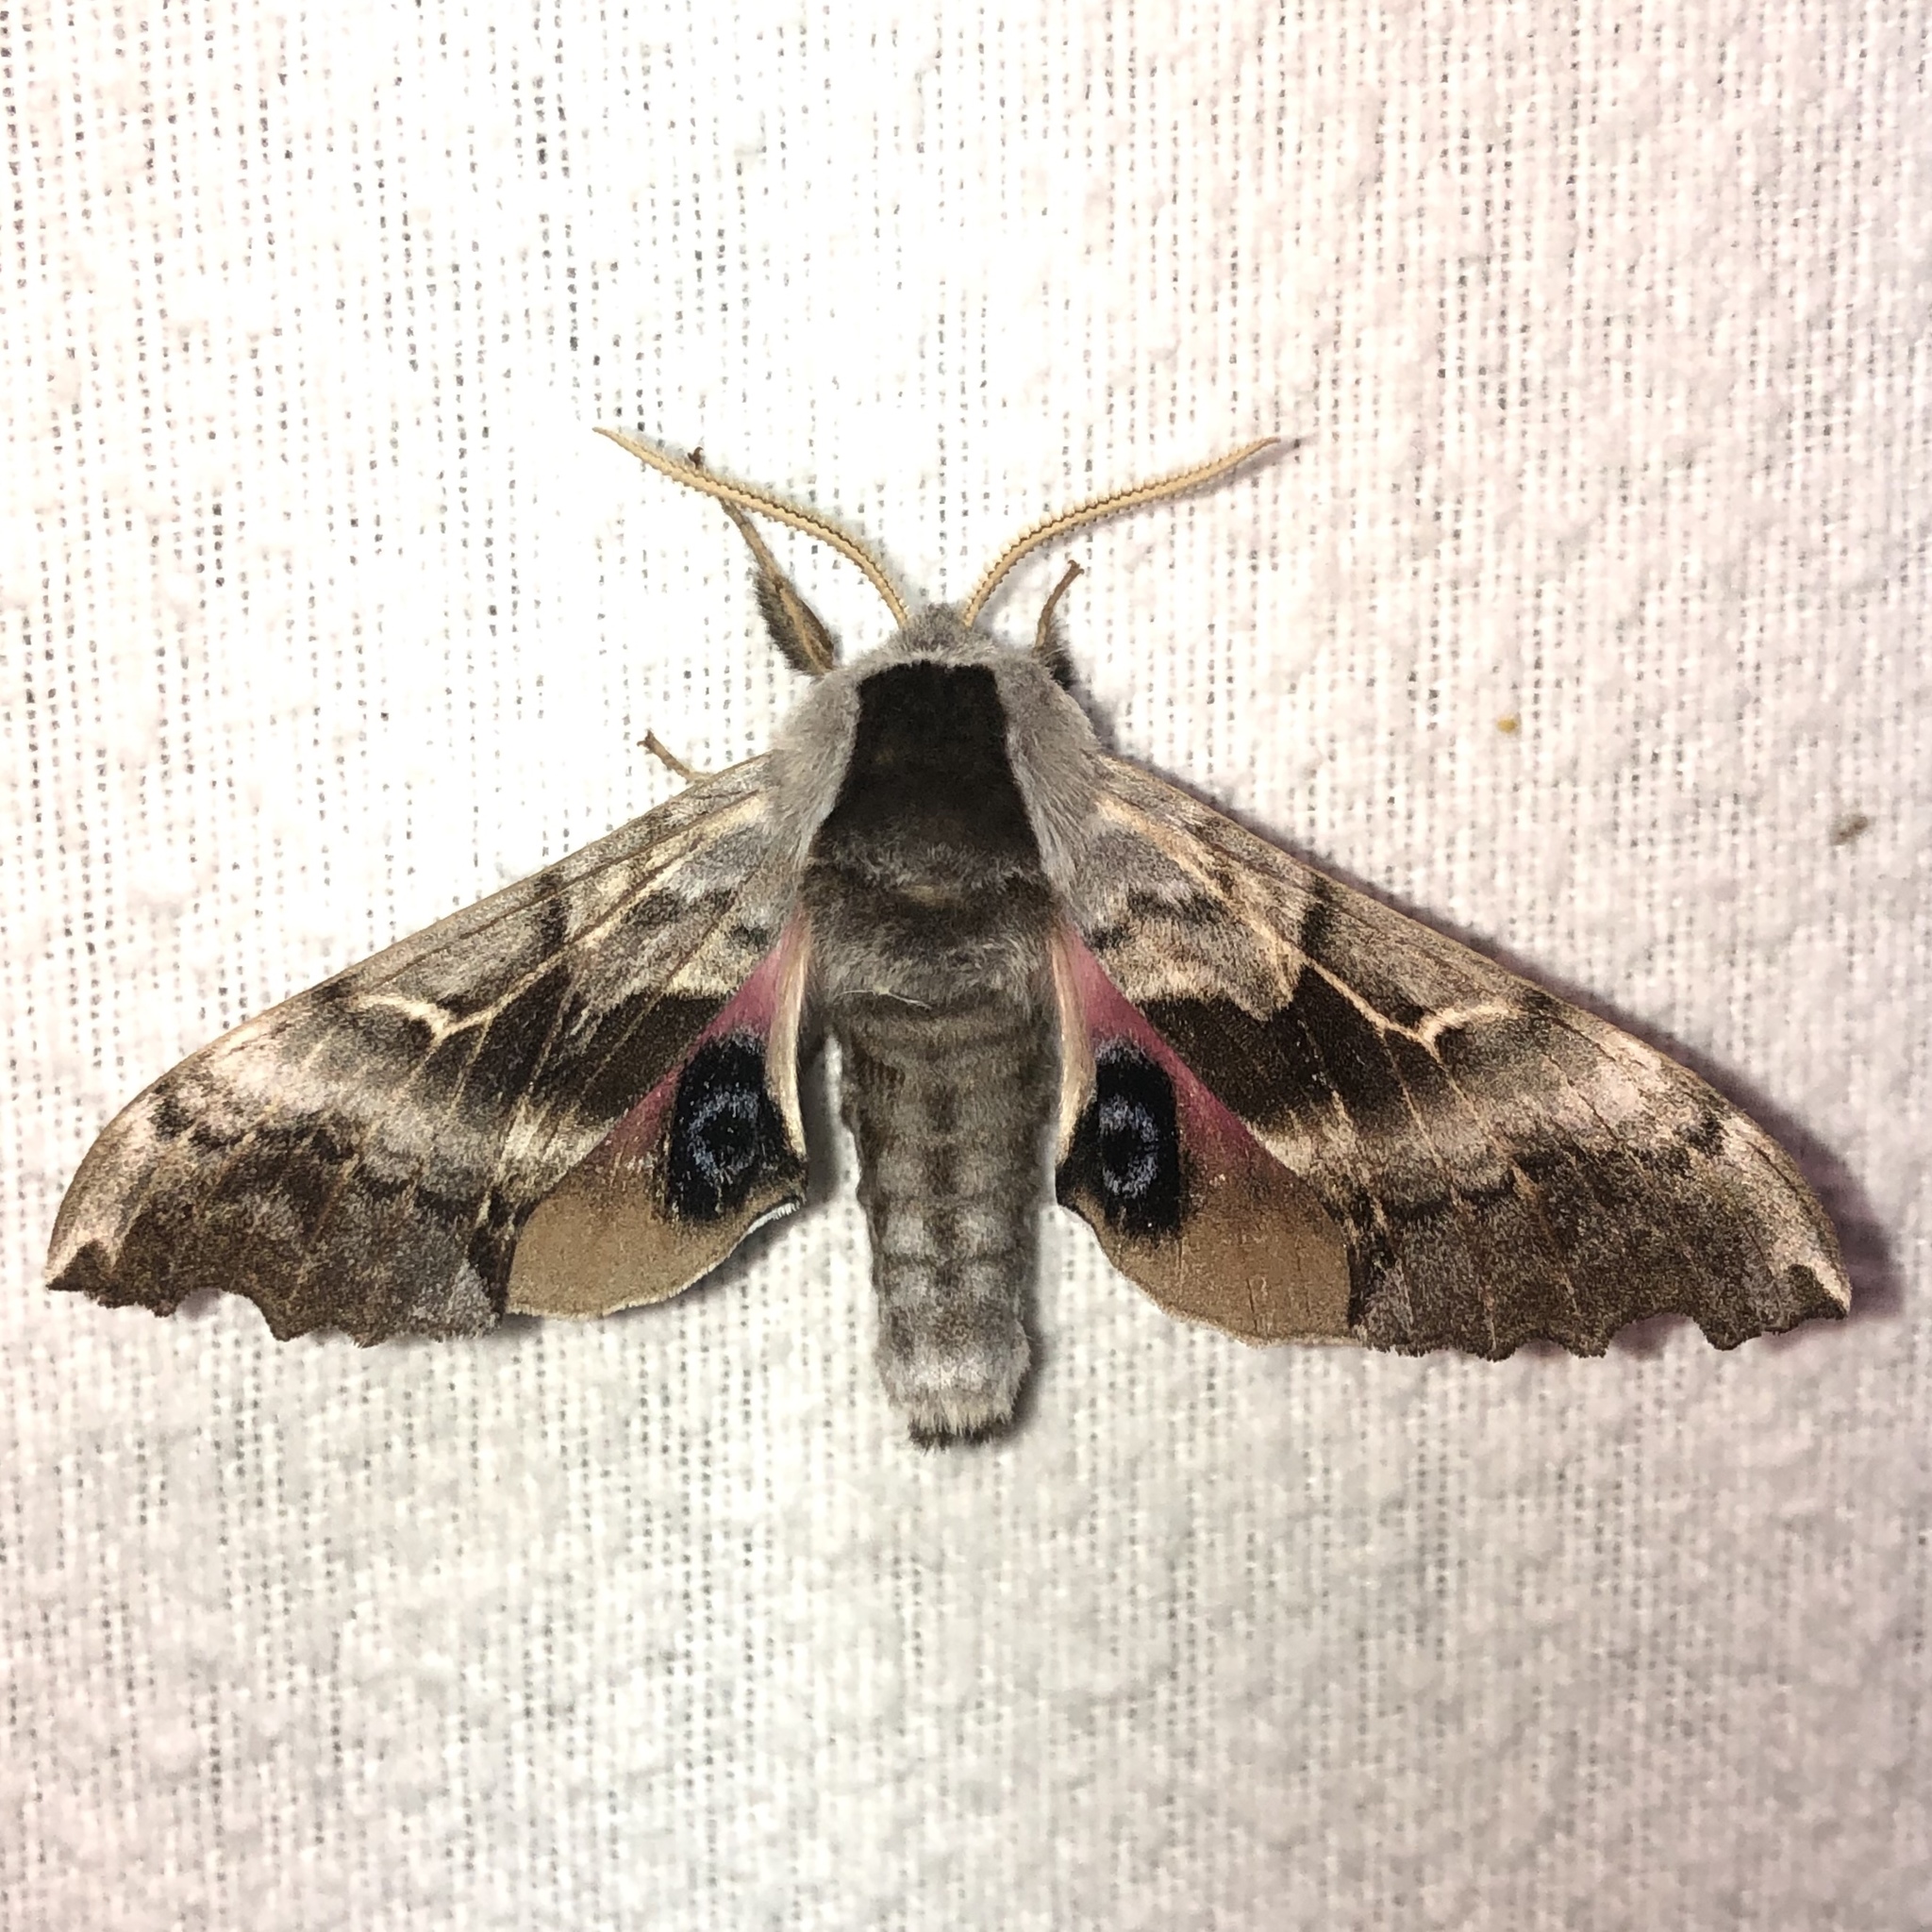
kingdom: Animalia
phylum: Arthropoda
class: Insecta
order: Lepidoptera
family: Sphingidae
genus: Smerinthus
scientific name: Smerinthus cerisyi
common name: Cerisy's sphinx moth
